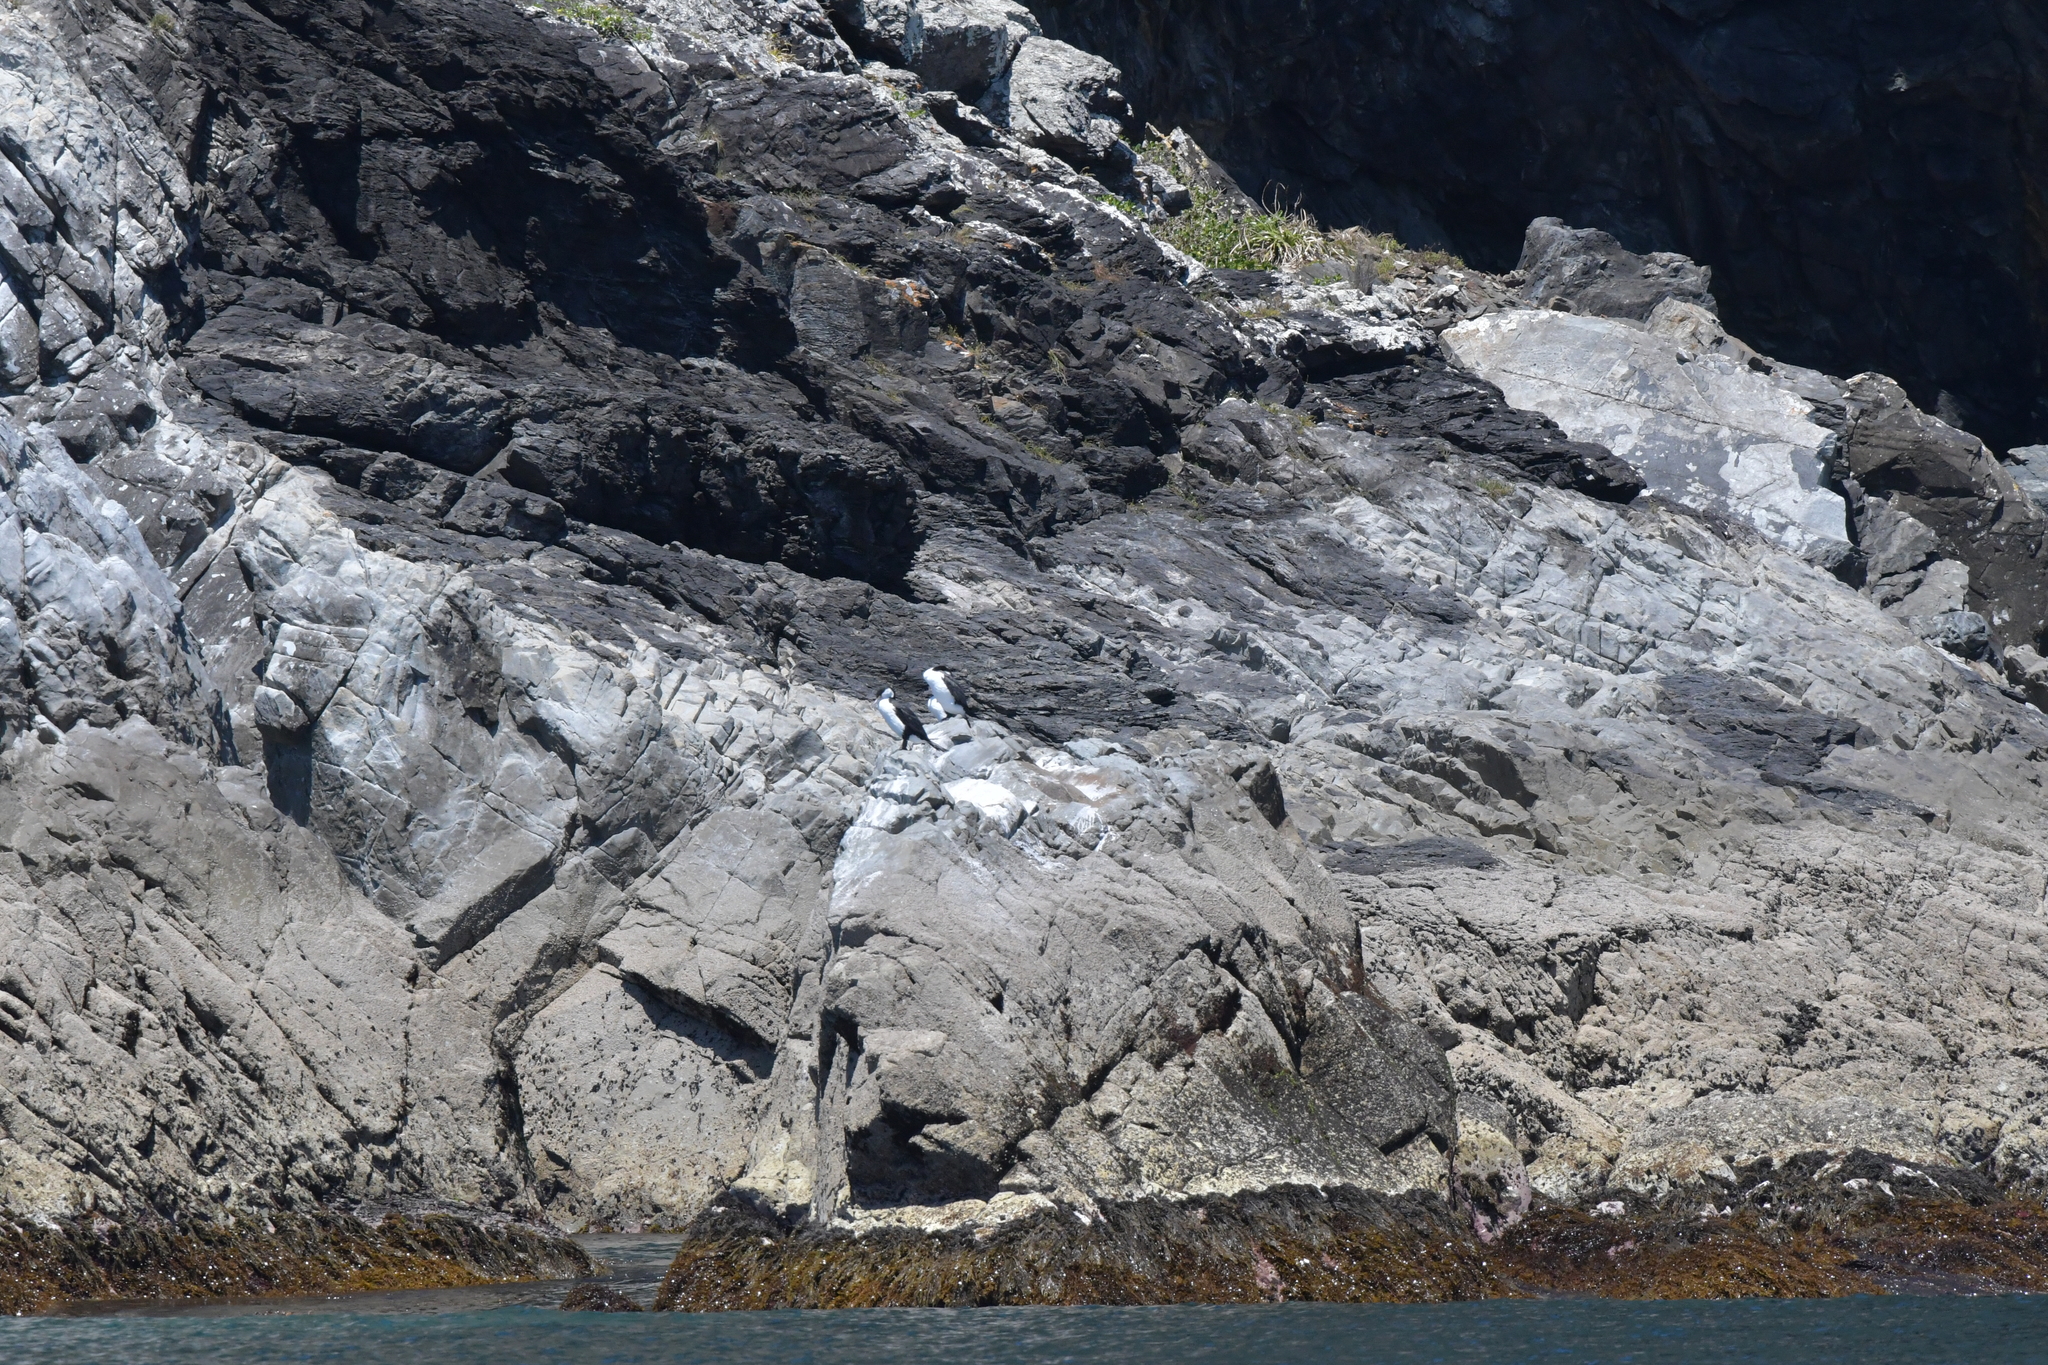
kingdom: Animalia
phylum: Chordata
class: Aves
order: Suliformes
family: Phalacrocoracidae
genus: Phalacrocorax
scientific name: Phalacrocorax varius
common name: Pied cormorant
